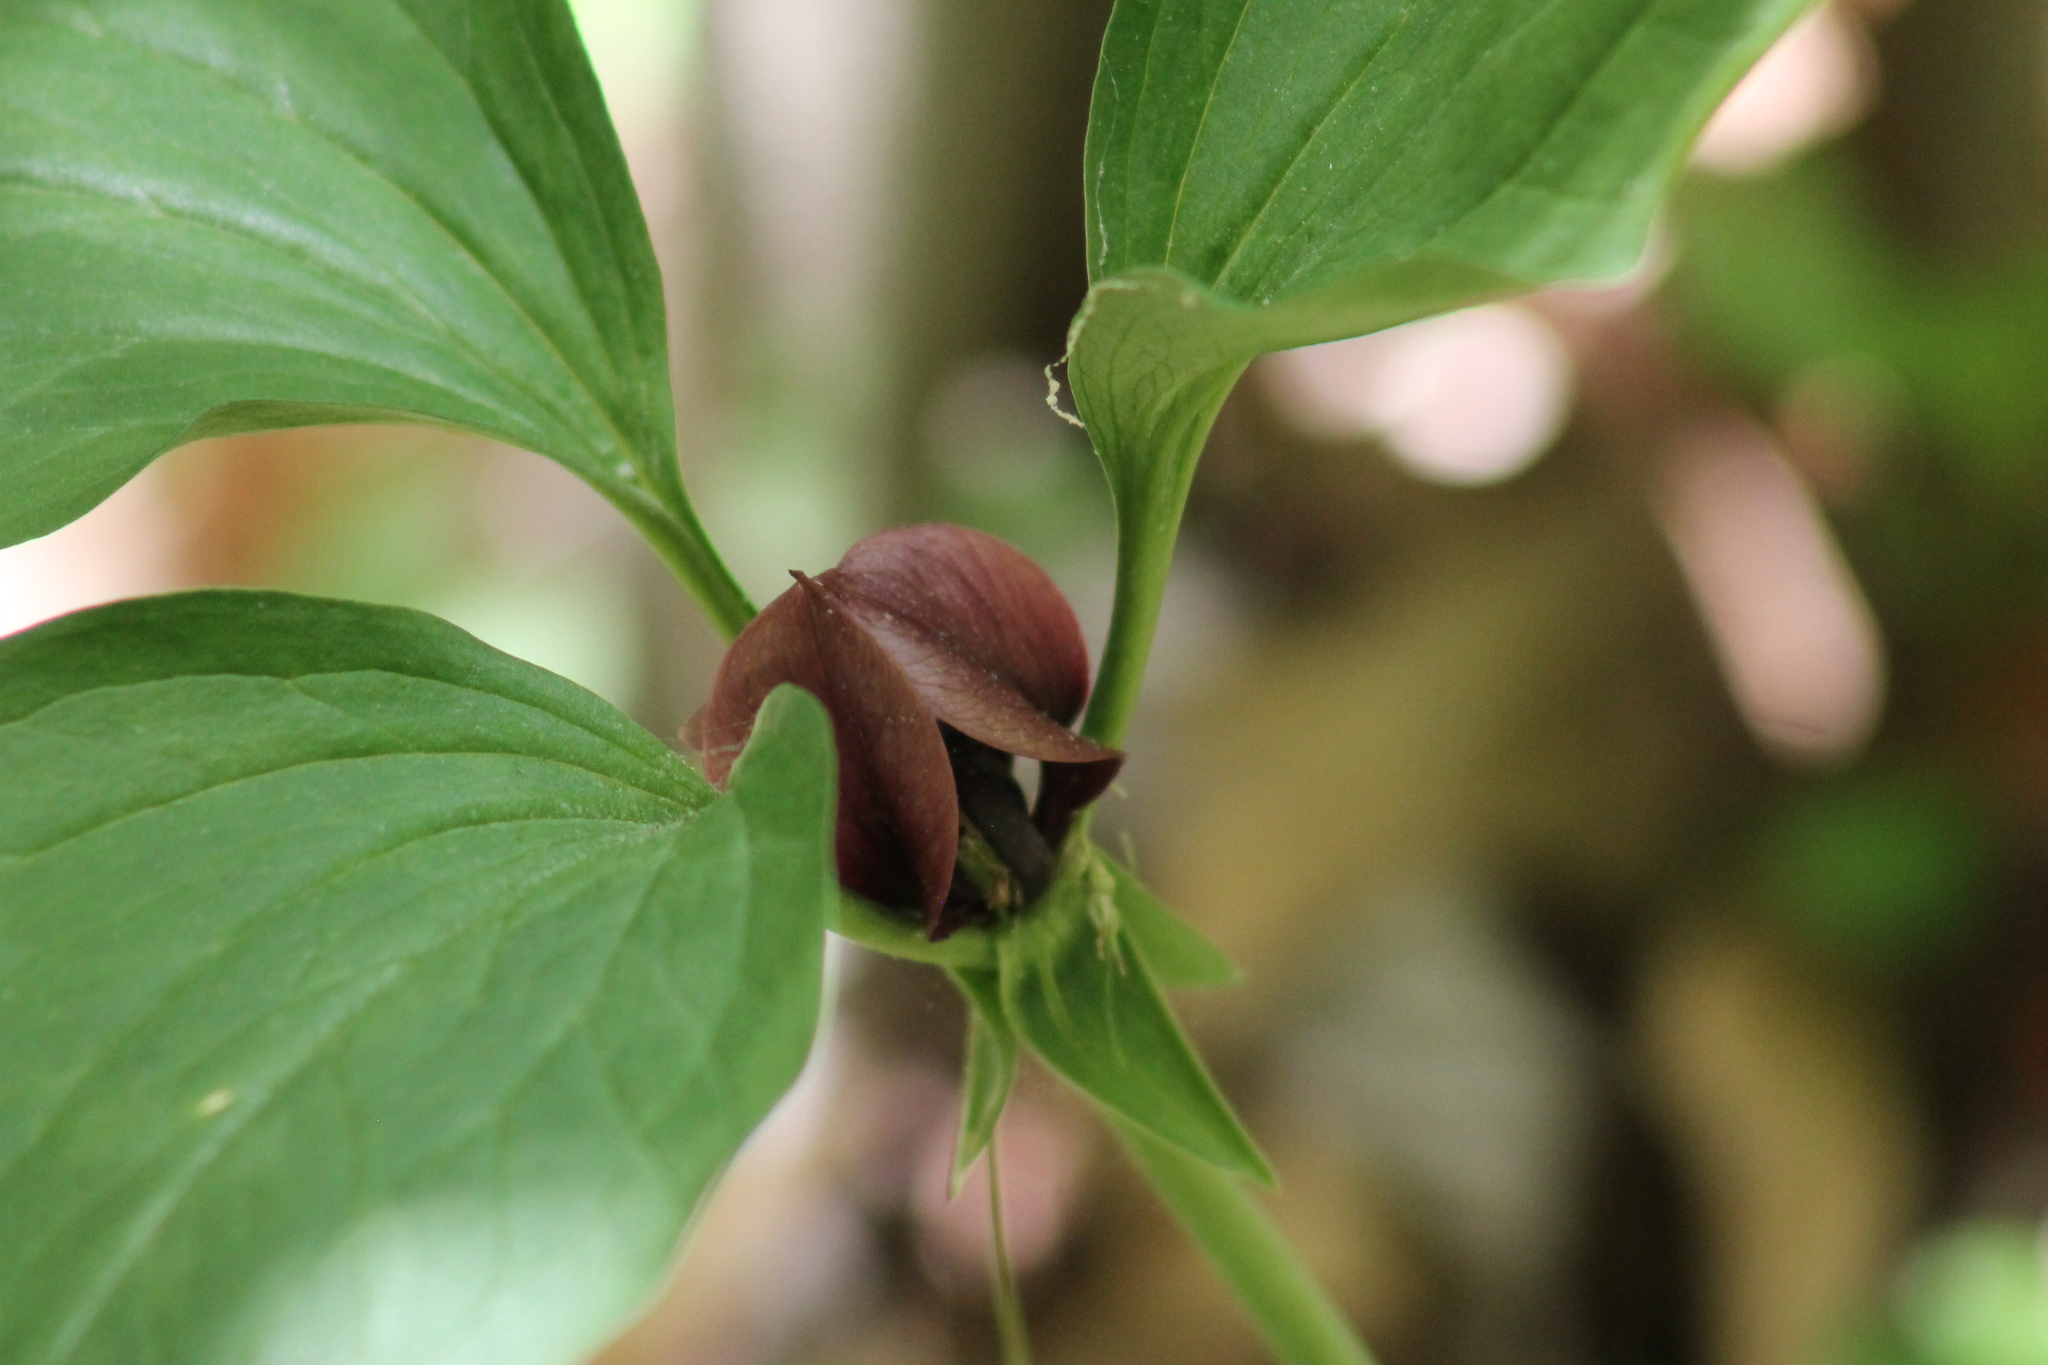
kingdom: Plantae
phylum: Tracheophyta
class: Liliopsida
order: Liliales
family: Melanthiaceae
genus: Trillium
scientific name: Trillium recurvatum
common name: Bloody butcher
